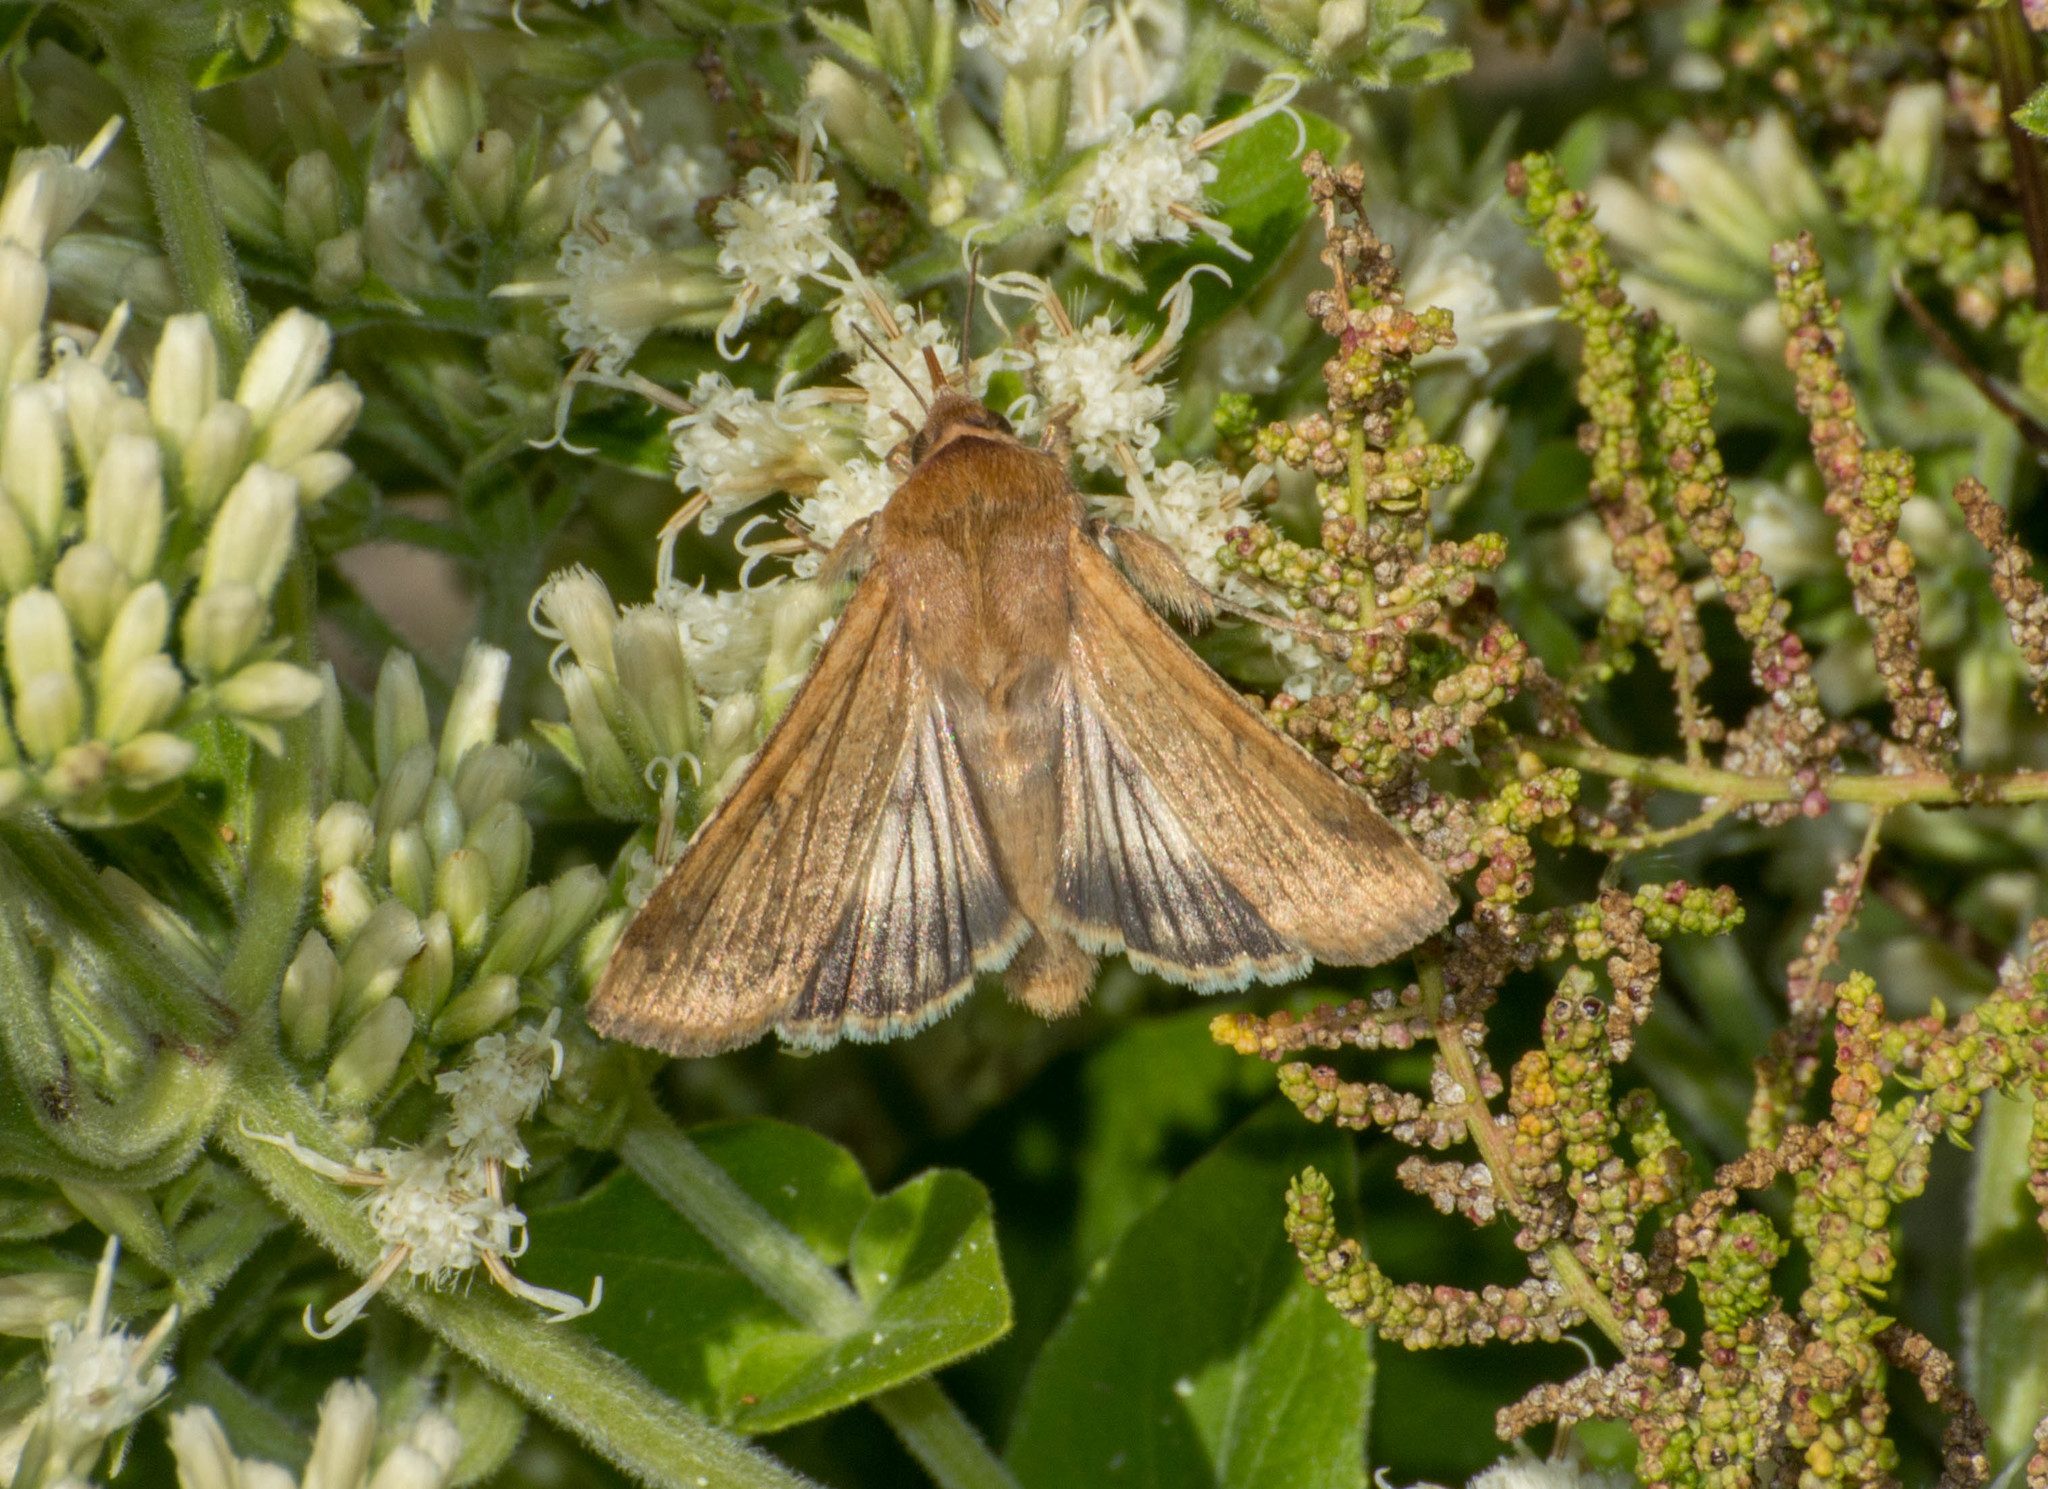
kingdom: Animalia
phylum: Arthropoda
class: Insecta
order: Lepidoptera
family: Noctuidae
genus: Helicoverpa
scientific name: Helicoverpa
